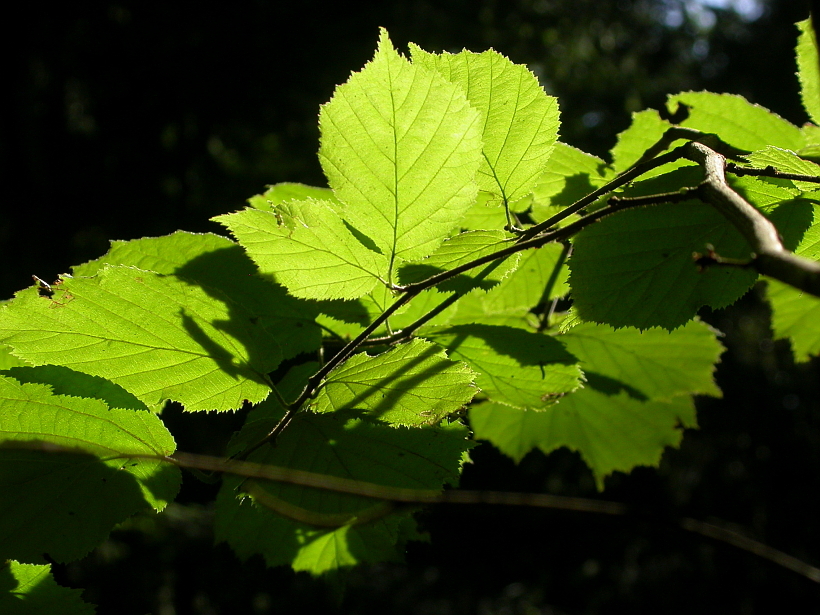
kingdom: Plantae
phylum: Tracheophyta
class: Magnoliopsida
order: Fagales
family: Betulaceae
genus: Corylus
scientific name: Corylus avellana
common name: European hazel
